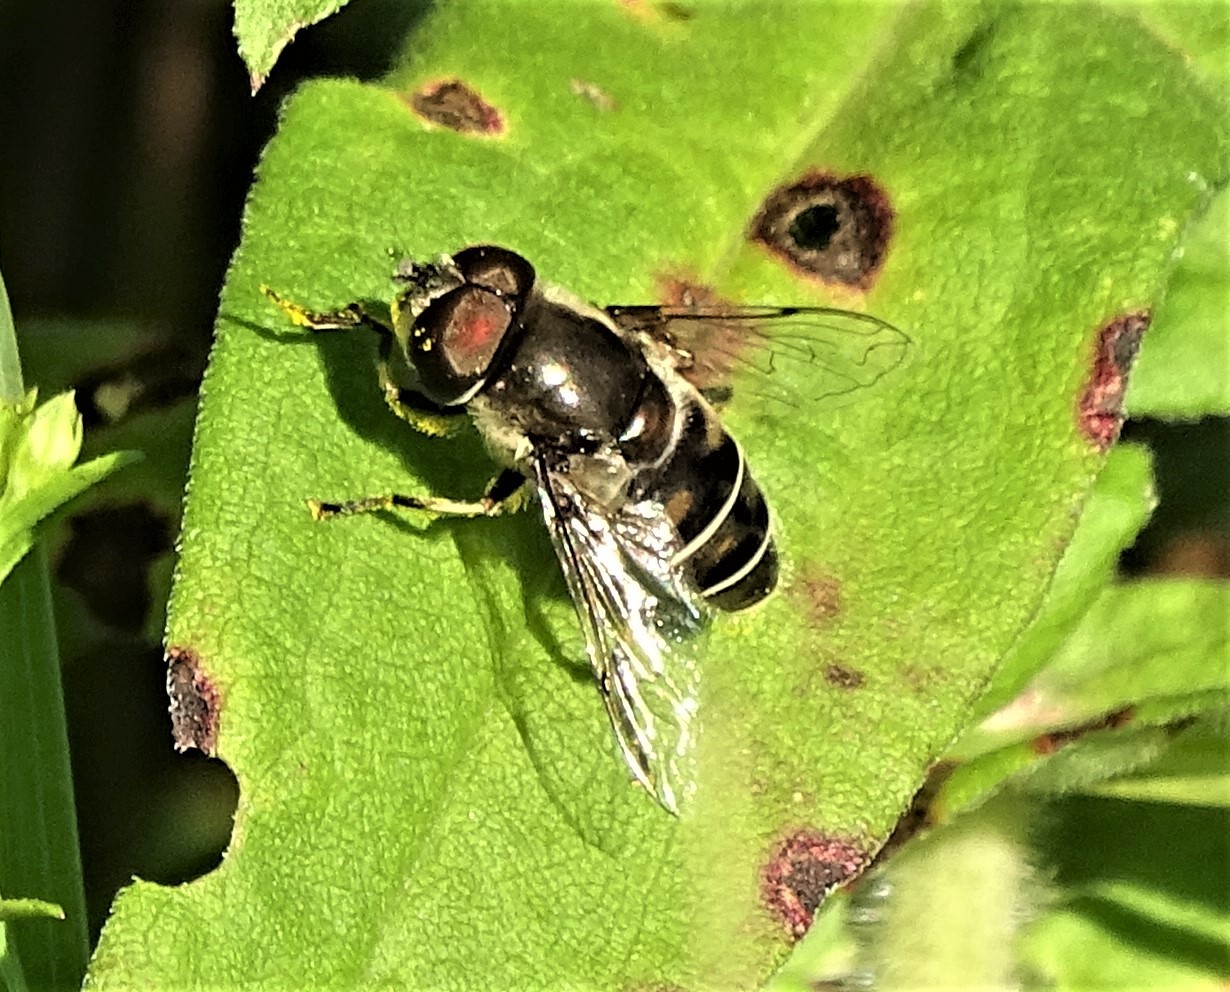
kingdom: Animalia
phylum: Arthropoda
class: Insecta
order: Diptera
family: Syrphidae
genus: Eristalis
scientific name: Eristalis dimidiata
